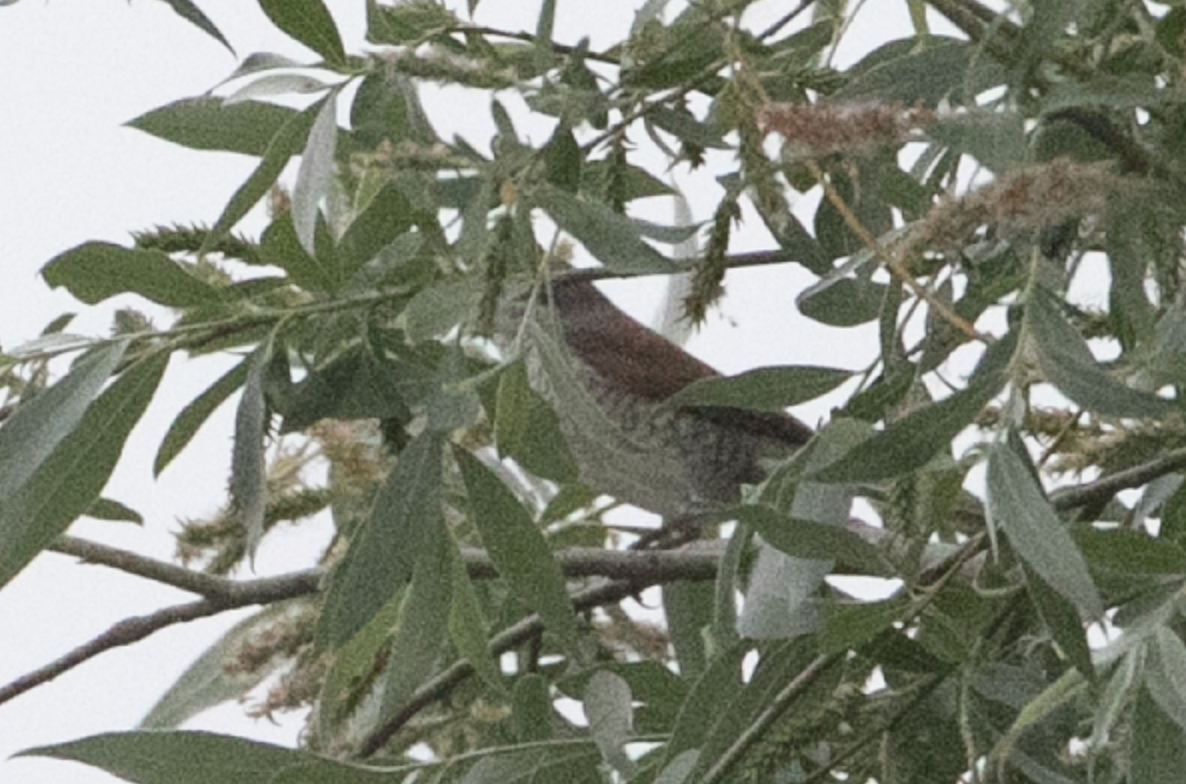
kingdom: Animalia
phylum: Chordata
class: Aves
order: Passeriformes
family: Laniidae
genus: Lanius
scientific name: Lanius collurio
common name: Red-backed shrike
